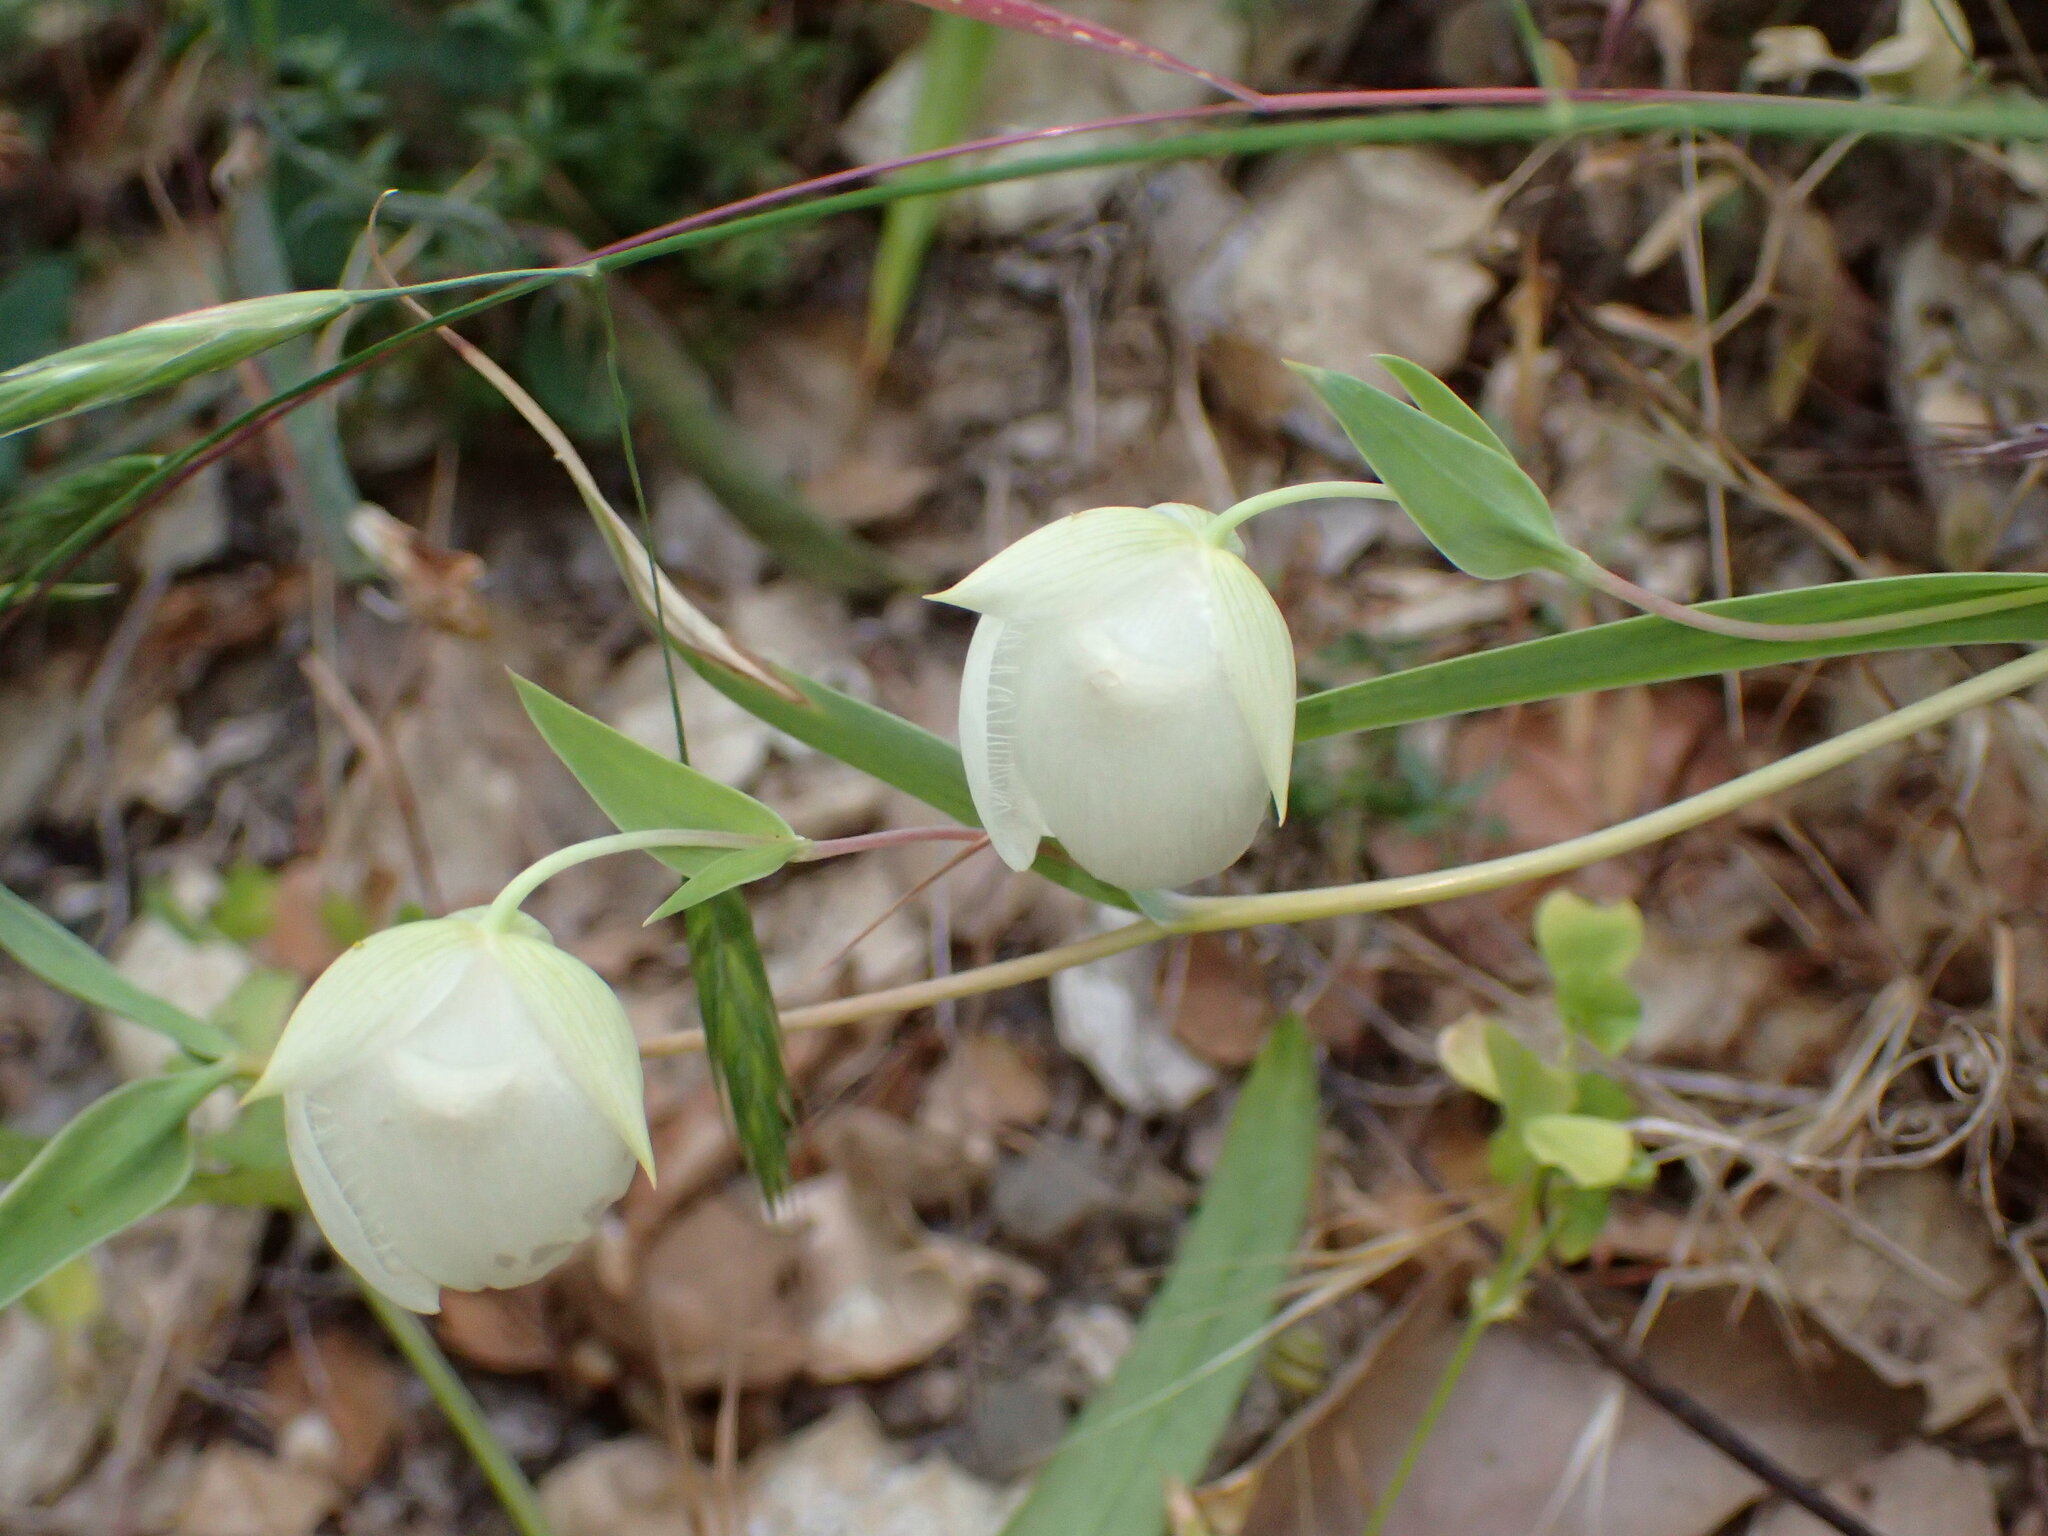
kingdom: Plantae
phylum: Tracheophyta
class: Liliopsida
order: Liliales
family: Liliaceae
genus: Calochortus
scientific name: Calochortus albus
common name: Fairy-lantern
